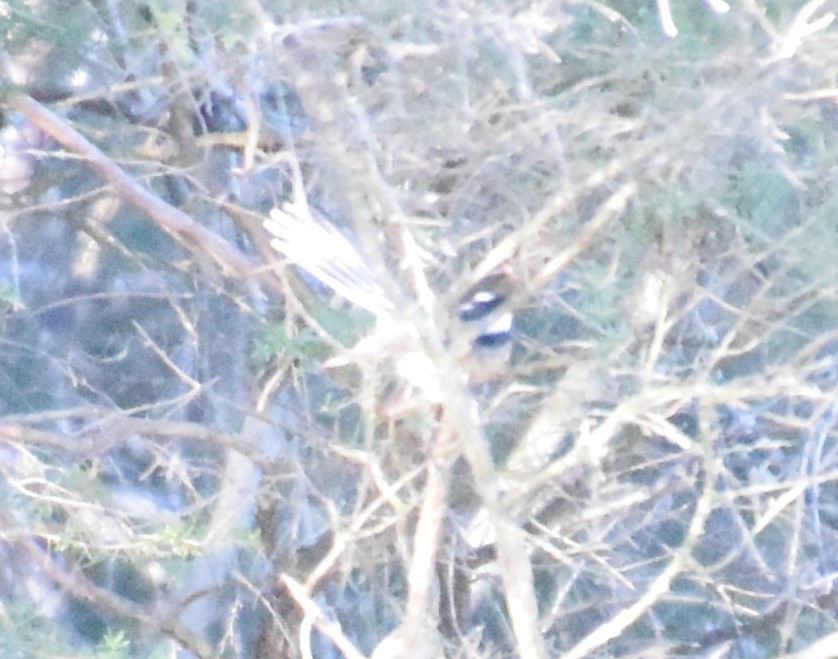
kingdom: Animalia
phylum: Chordata
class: Aves
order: Passeriformes
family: Rhipiduridae
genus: Rhipidura
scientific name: Rhipidura albiscapa
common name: Grey fantail
